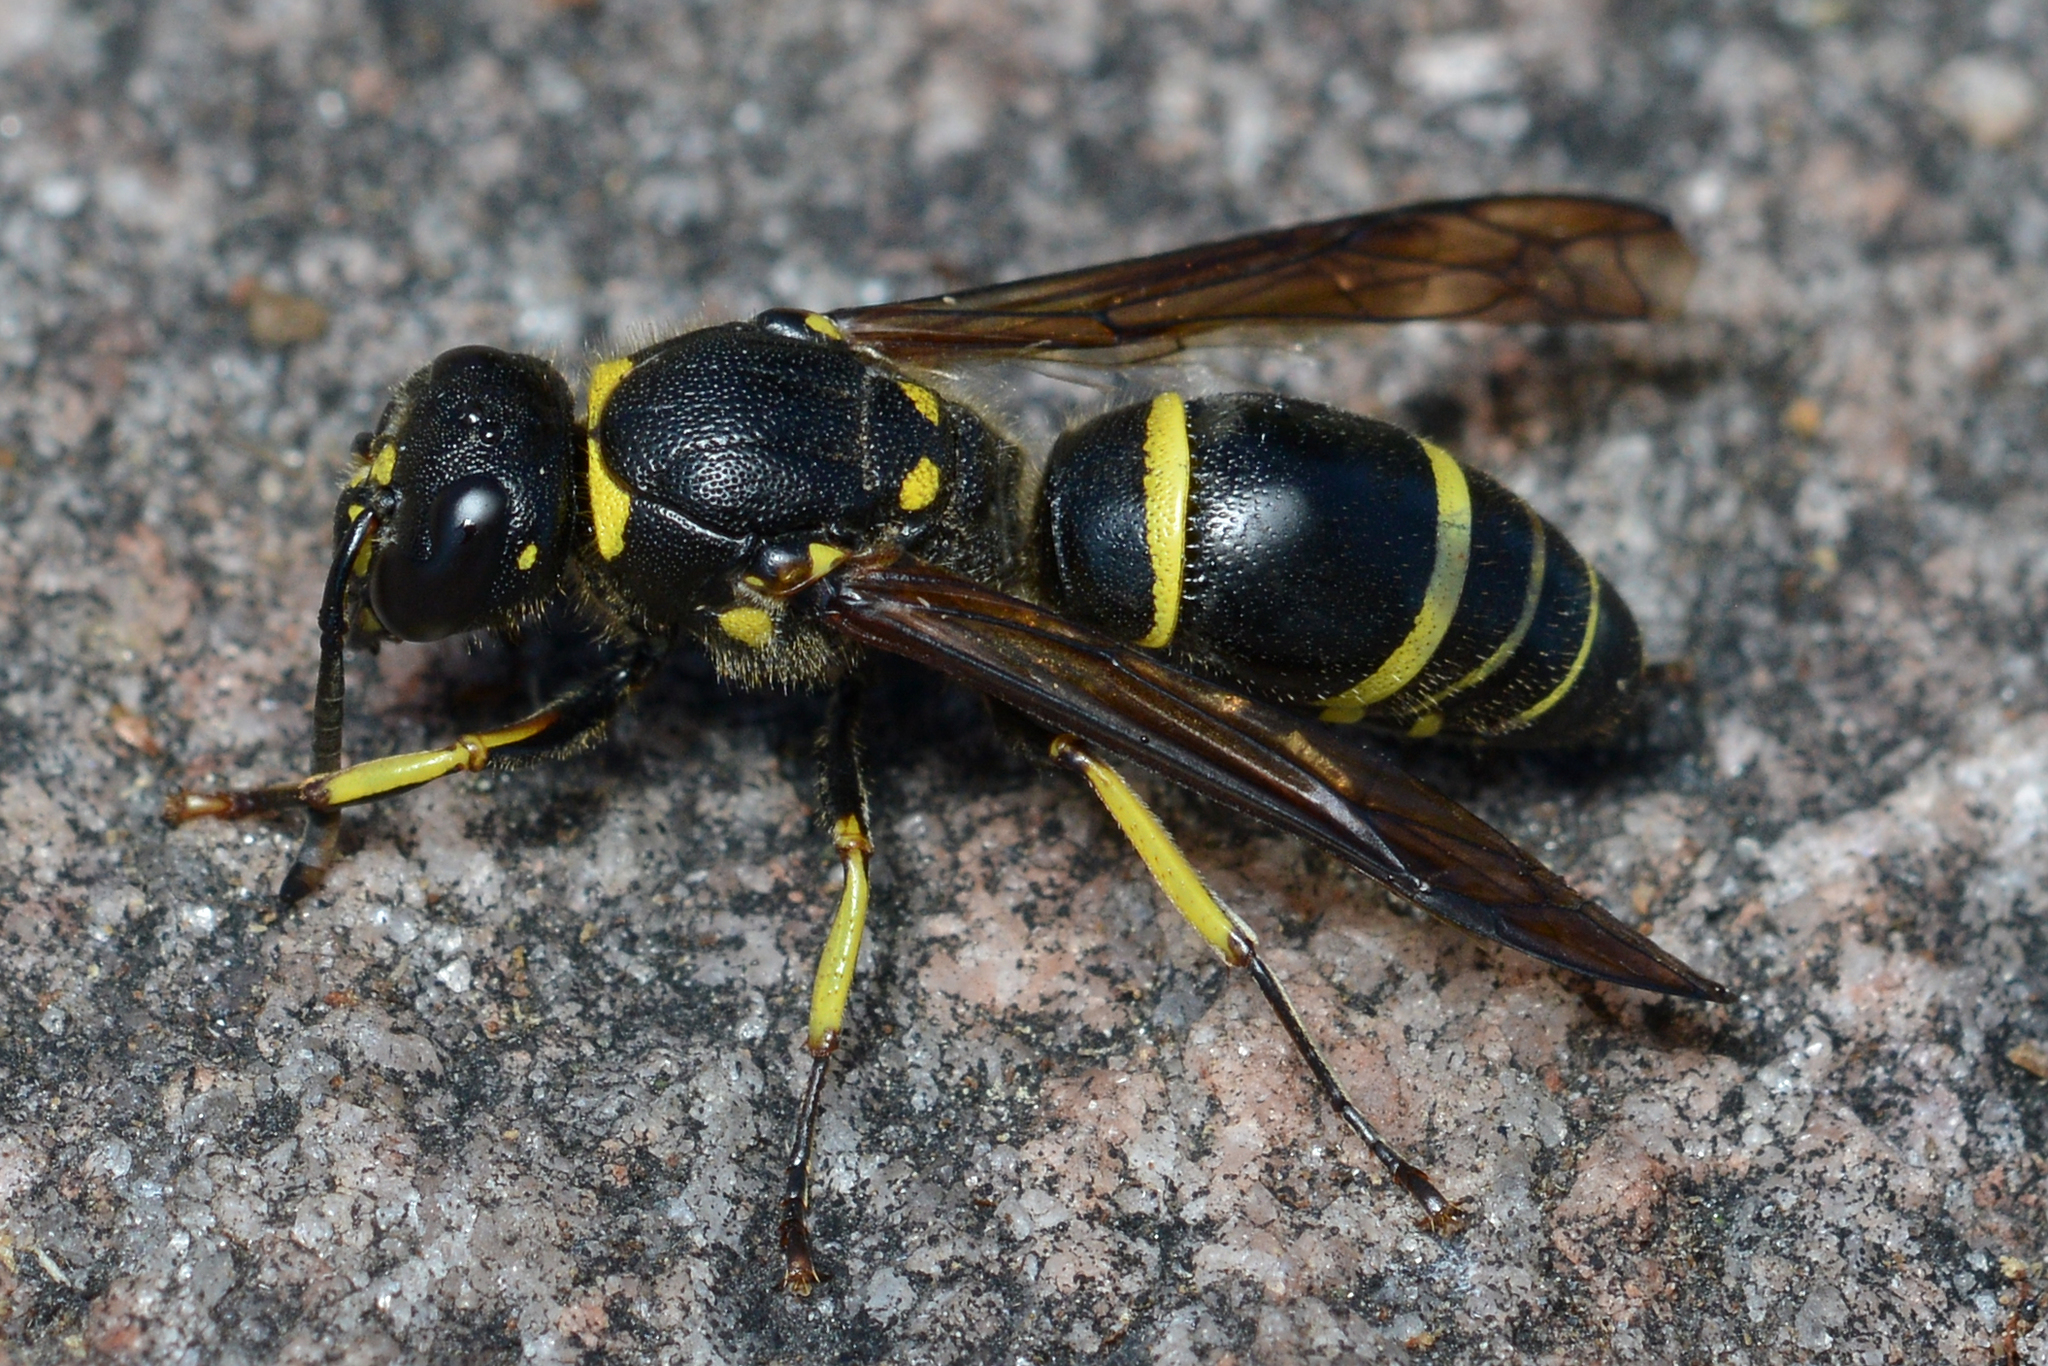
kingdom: Animalia
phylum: Arthropoda
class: Insecta
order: Hymenoptera
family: Vespidae
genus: Ancistrocerus
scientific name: Ancistrocerus
